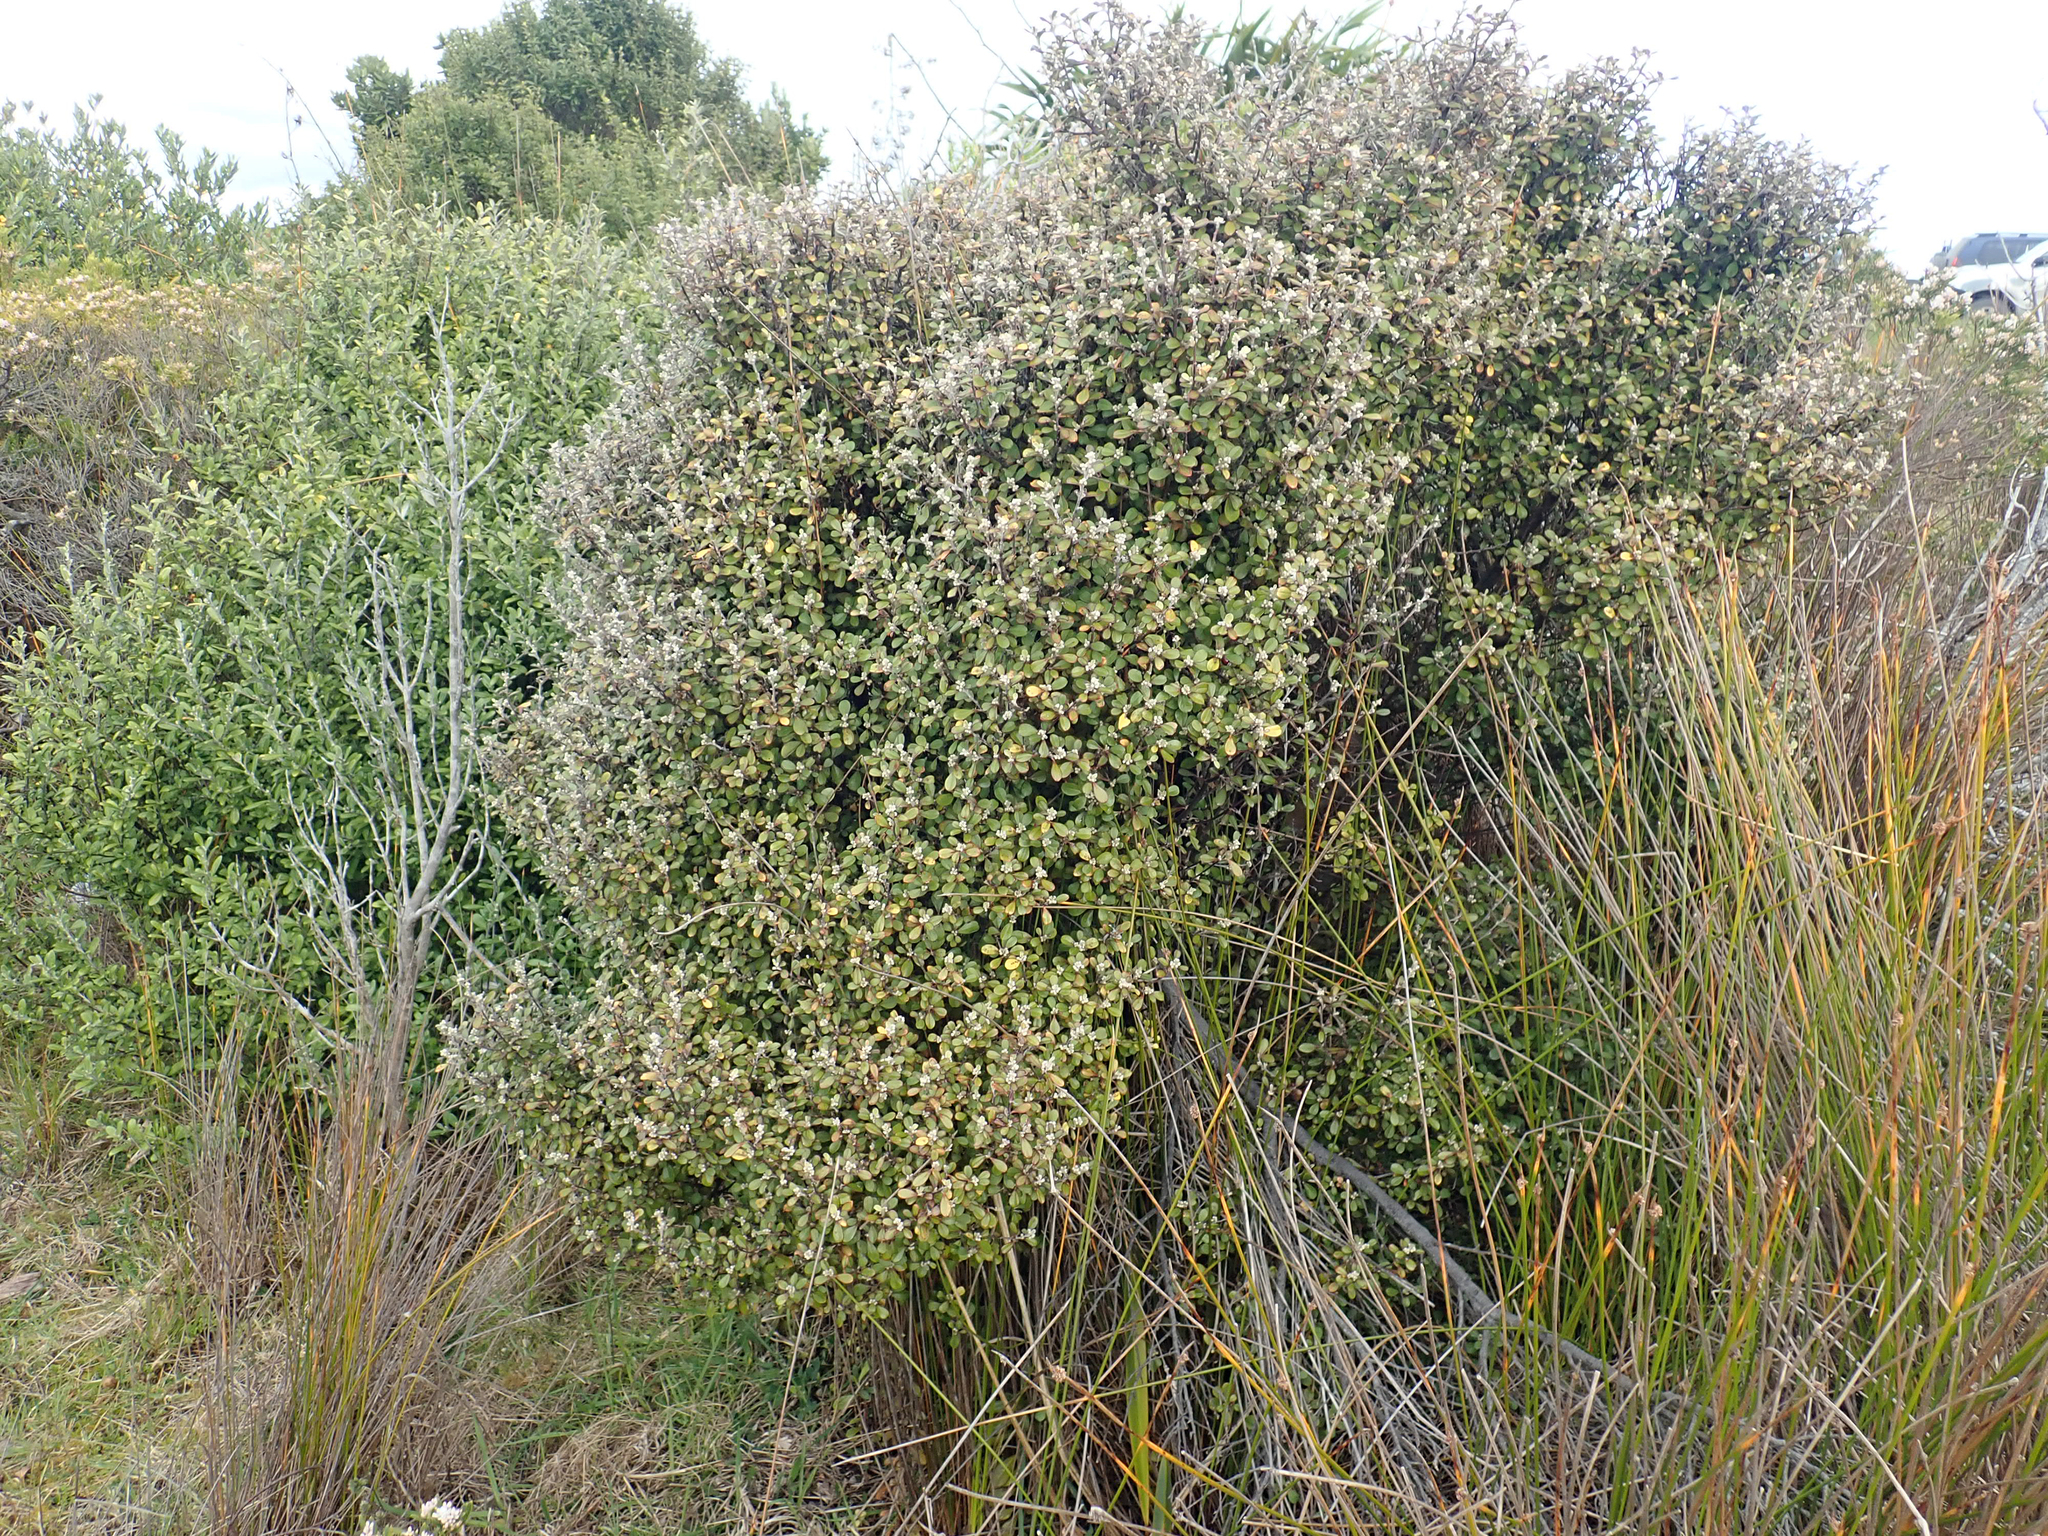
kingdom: Plantae
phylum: Tracheophyta
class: Magnoliopsida
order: Asterales
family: Argophyllaceae
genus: Corokia
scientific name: Corokia virgata
